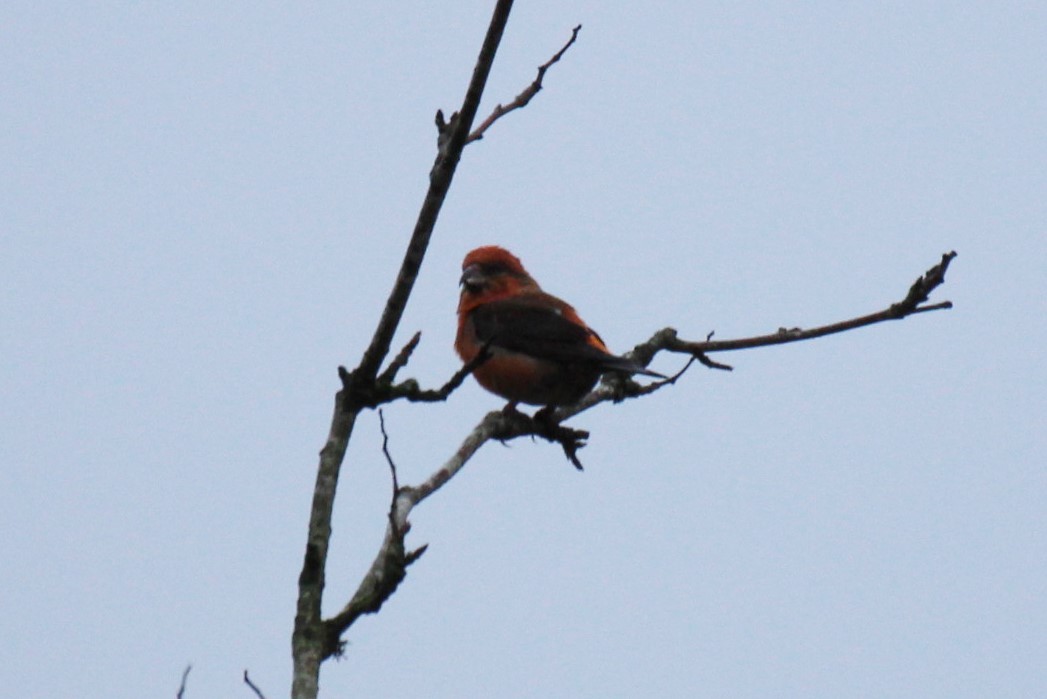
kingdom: Animalia
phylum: Chordata
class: Aves
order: Passeriformes
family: Fringillidae
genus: Loxia
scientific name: Loxia curvirostra
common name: Red crossbill
